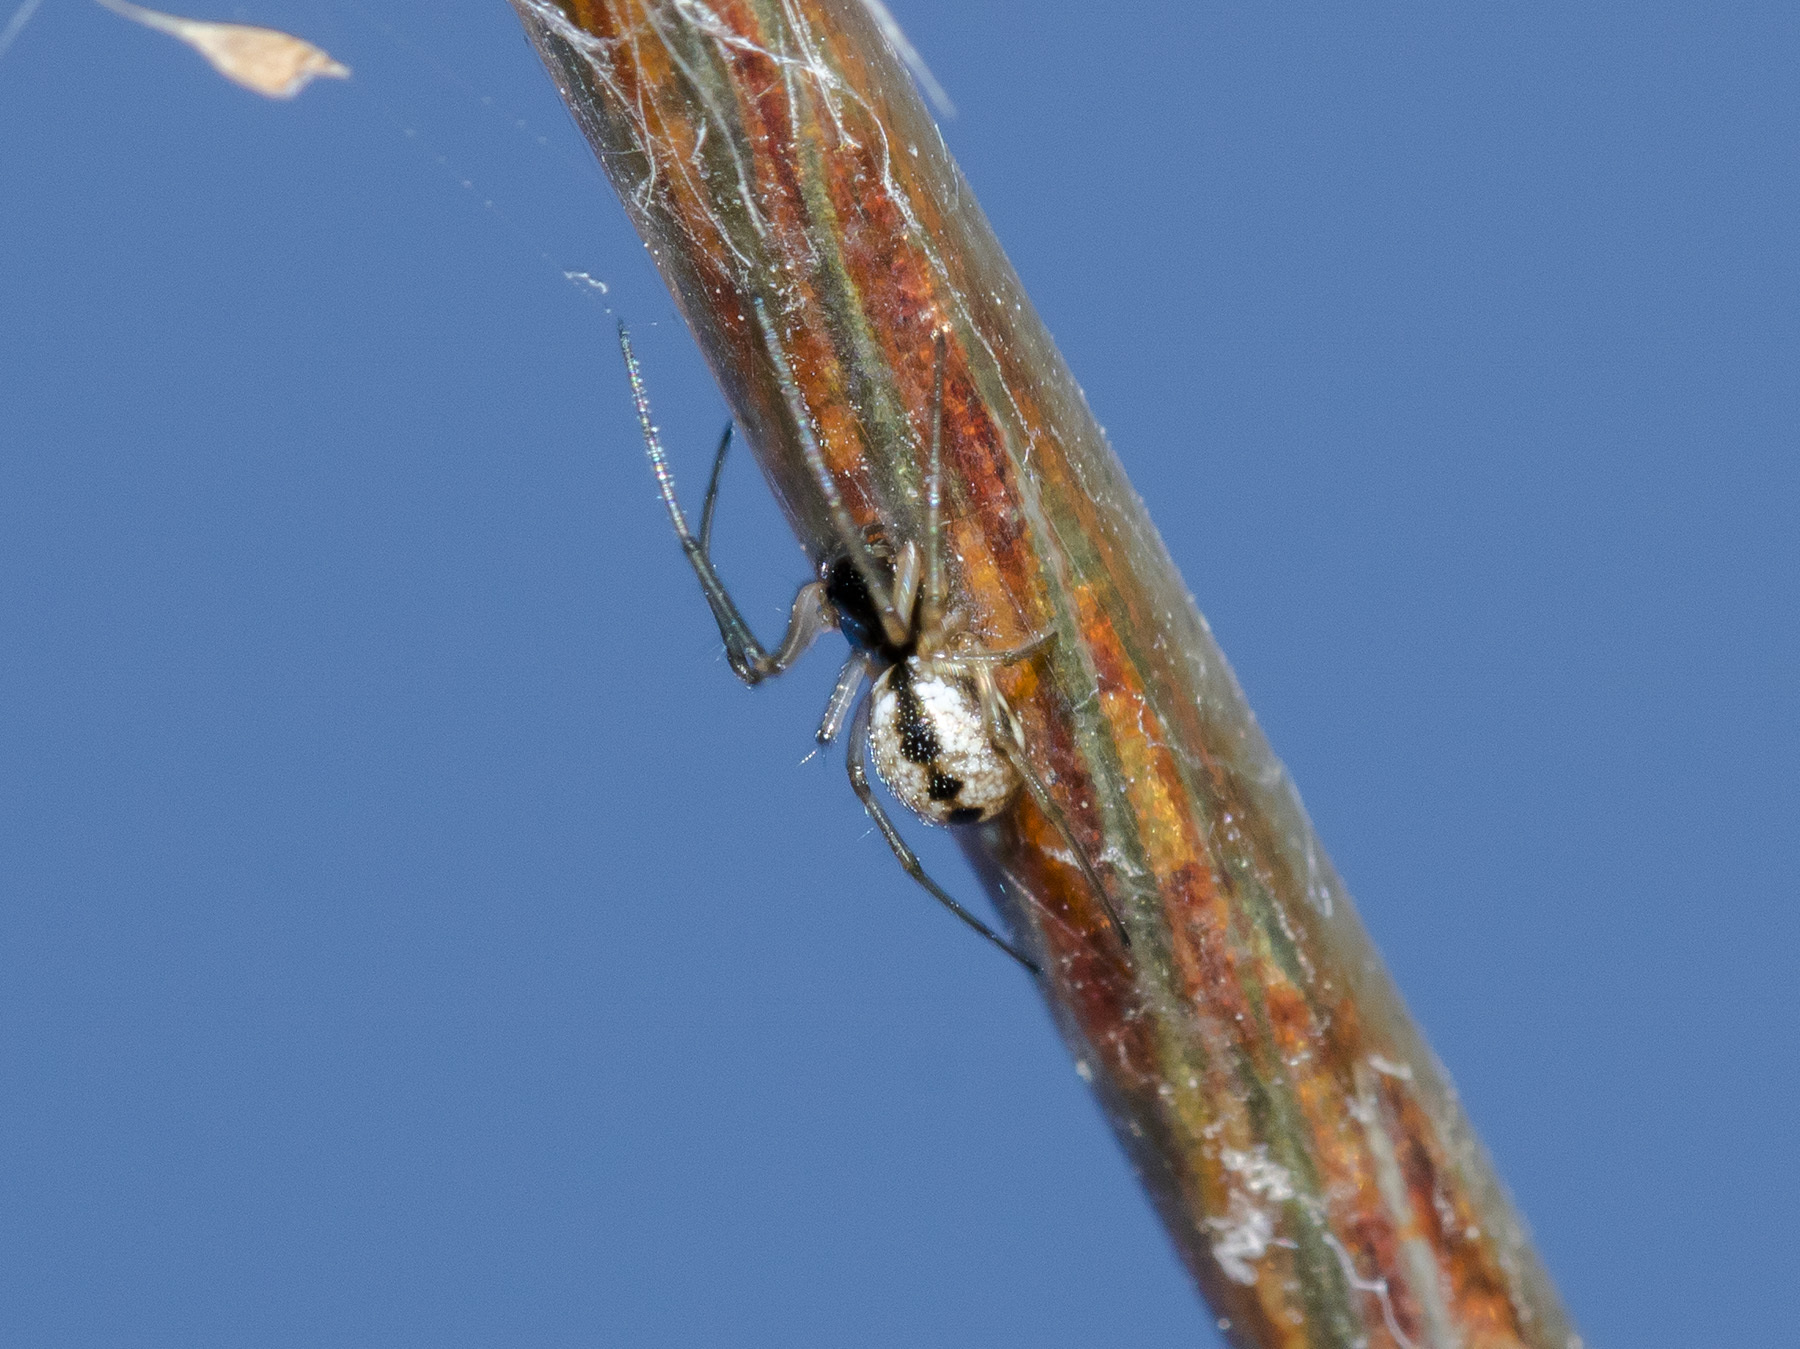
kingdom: Animalia
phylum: Arthropoda
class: Arachnida
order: Araneae
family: Linyphiidae
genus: Microlinyphia
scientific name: Microlinyphia pusilla
